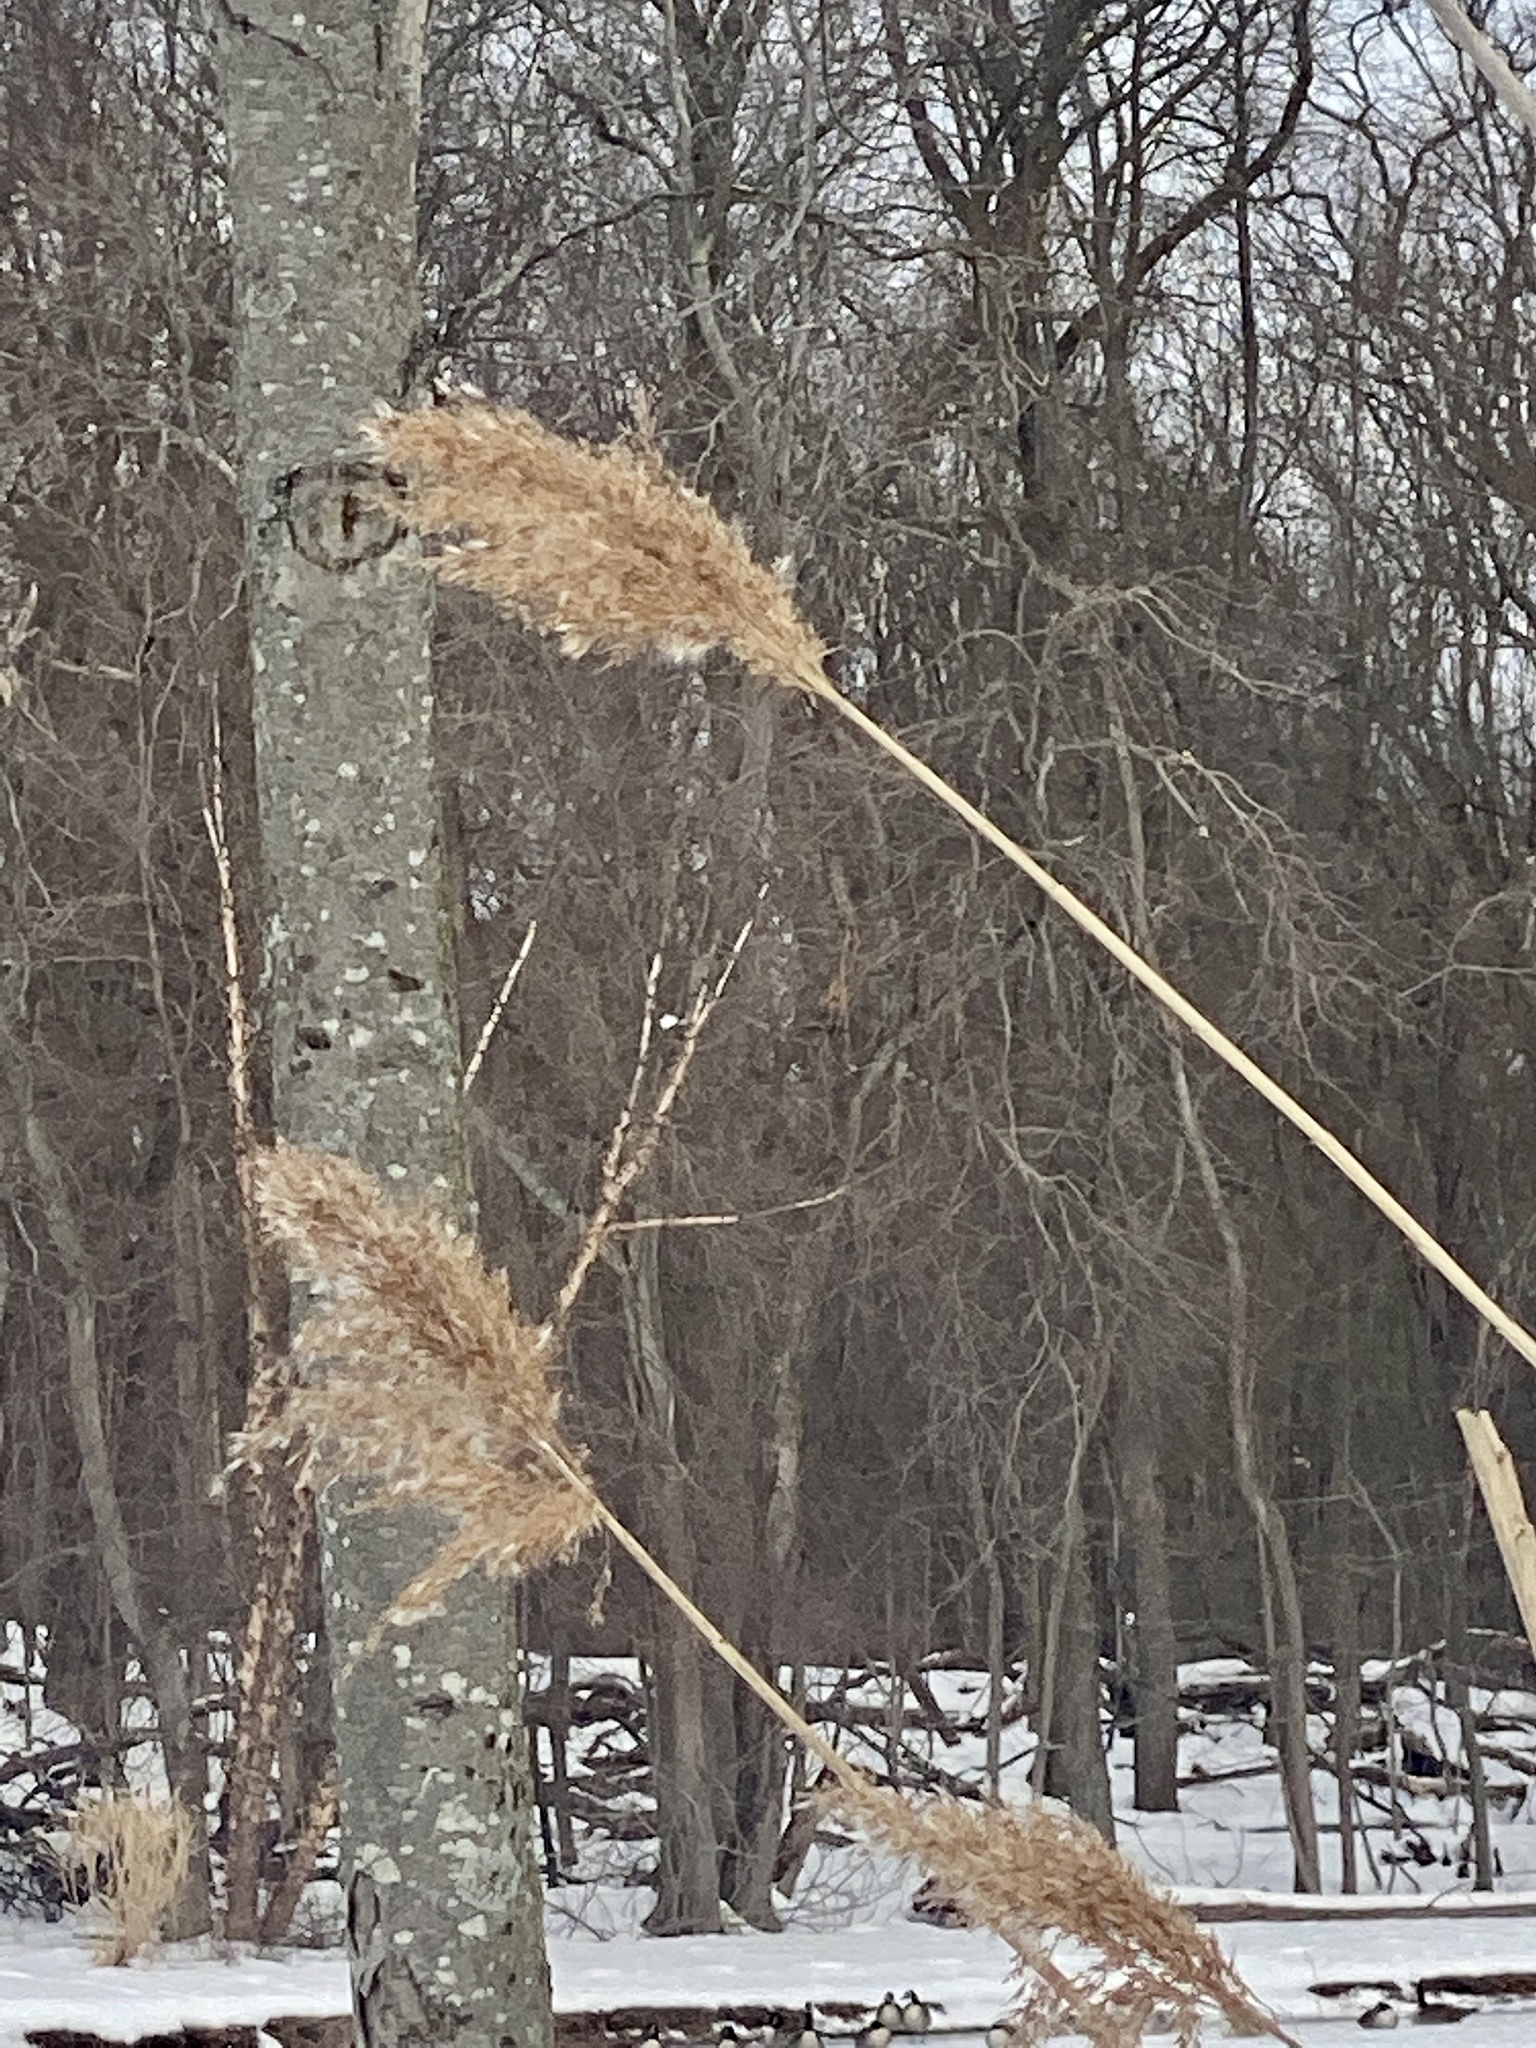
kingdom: Plantae
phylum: Tracheophyta
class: Liliopsida
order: Poales
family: Poaceae
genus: Phragmites
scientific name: Phragmites australis
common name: Common reed
